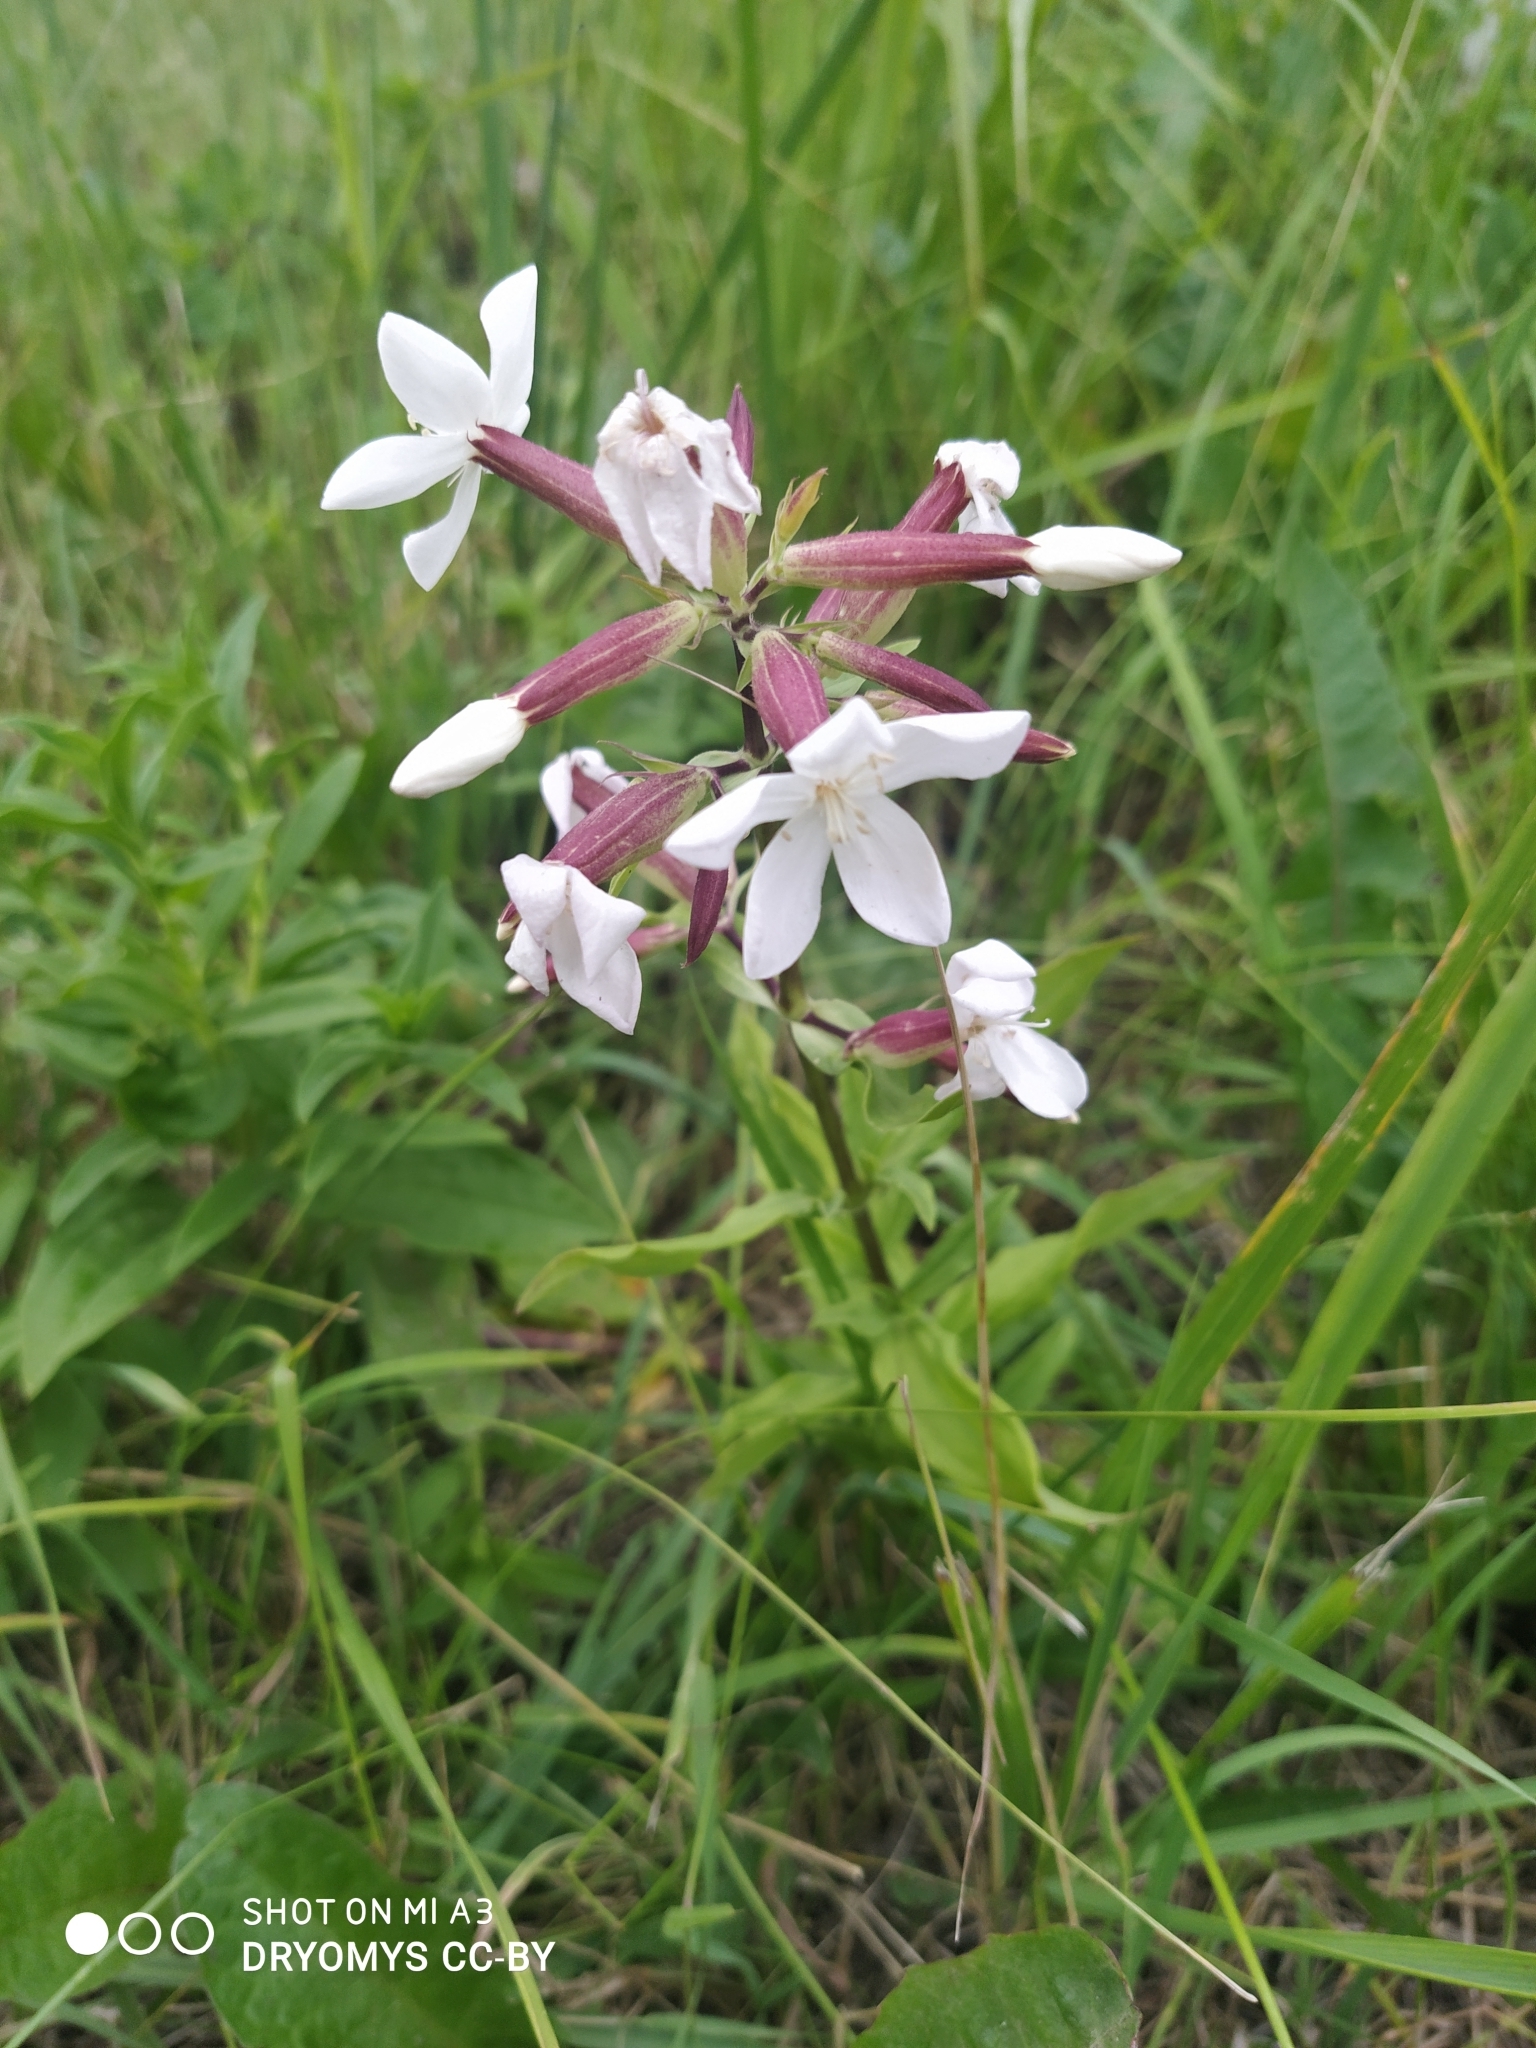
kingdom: Plantae
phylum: Tracheophyta
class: Magnoliopsida
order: Caryophyllales
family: Caryophyllaceae
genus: Saponaria
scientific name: Saponaria officinalis
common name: Soapwort
